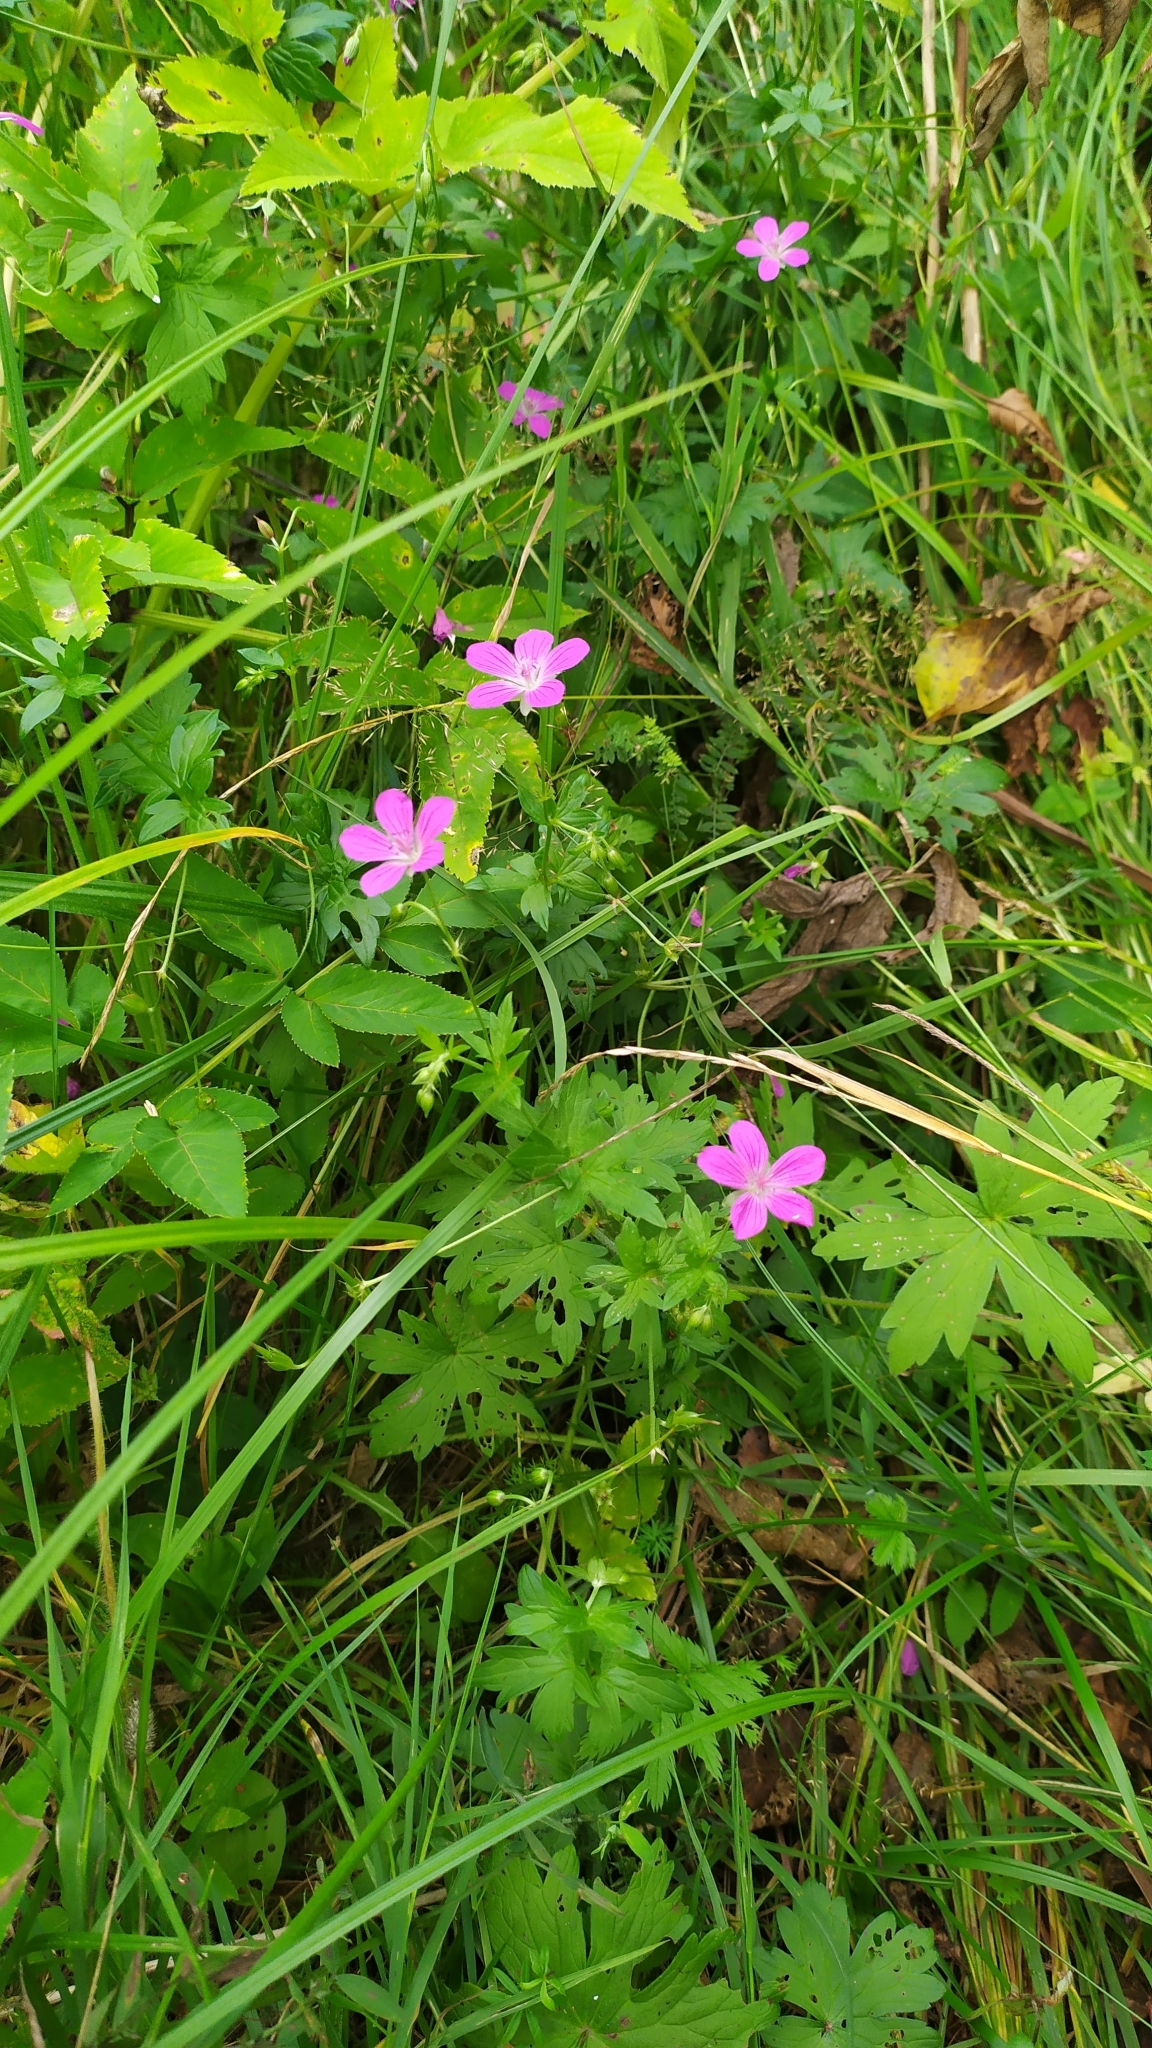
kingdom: Plantae
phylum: Tracheophyta
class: Magnoliopsida
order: Geraniales
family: Geraniaceae
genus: Geranium
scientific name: Geranium palustre
